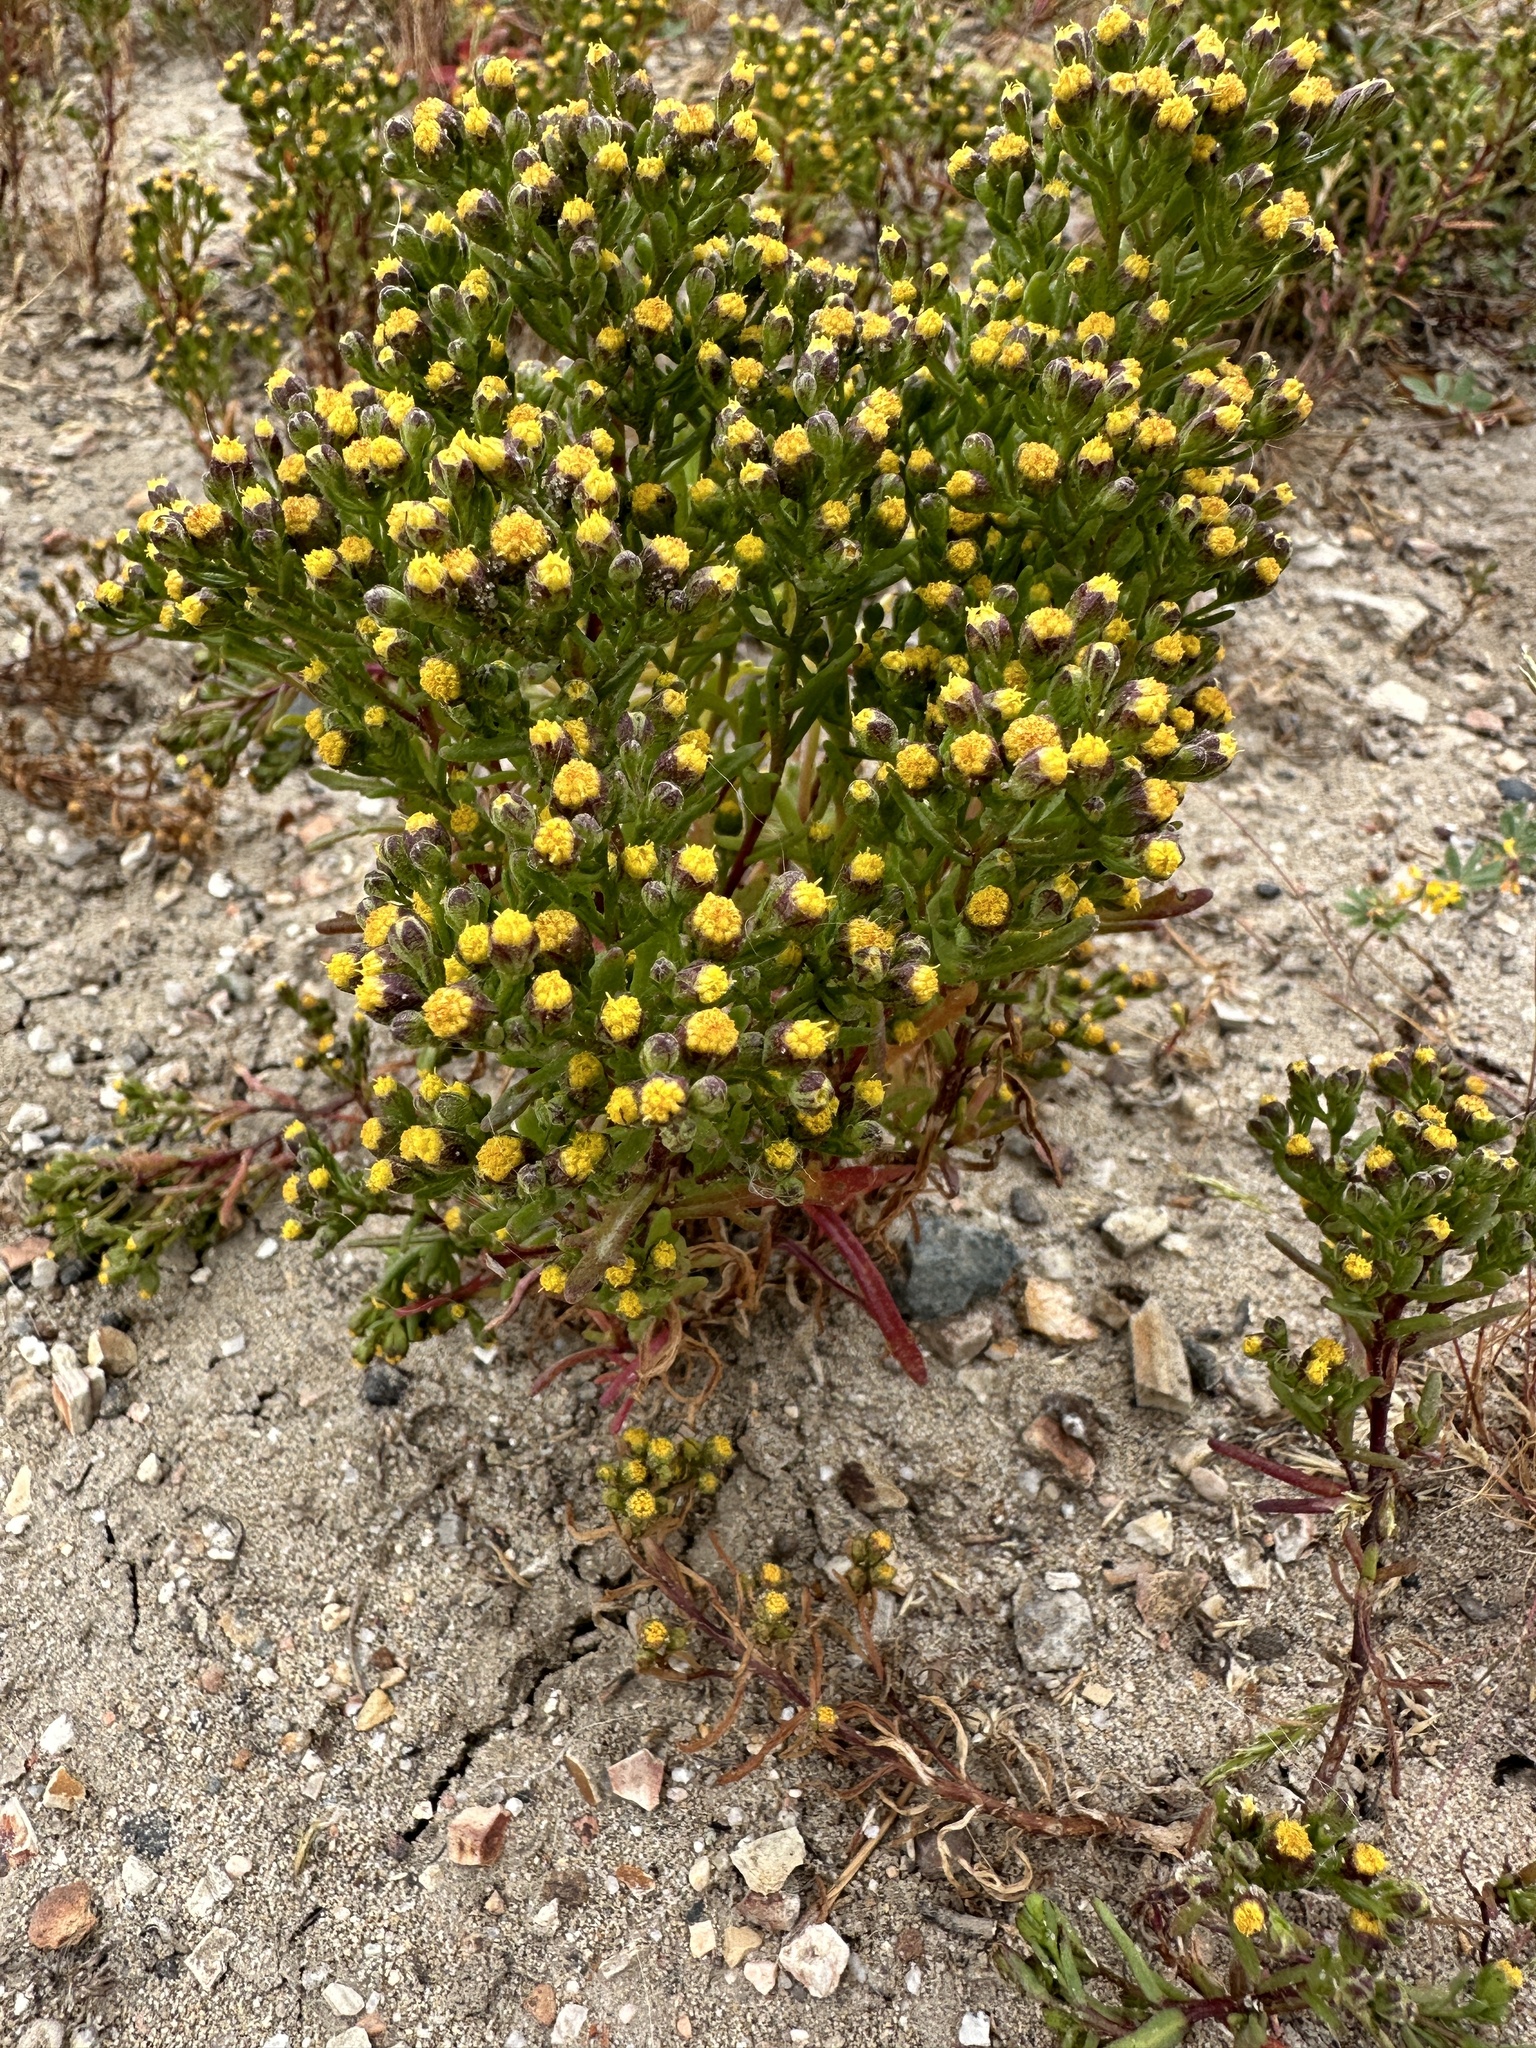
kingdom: Plantae
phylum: Tracheophyta
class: Magnoliopsida
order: Asterales
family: Asteraceae
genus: Amblyopappus
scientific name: Amblyopappus pusillus
